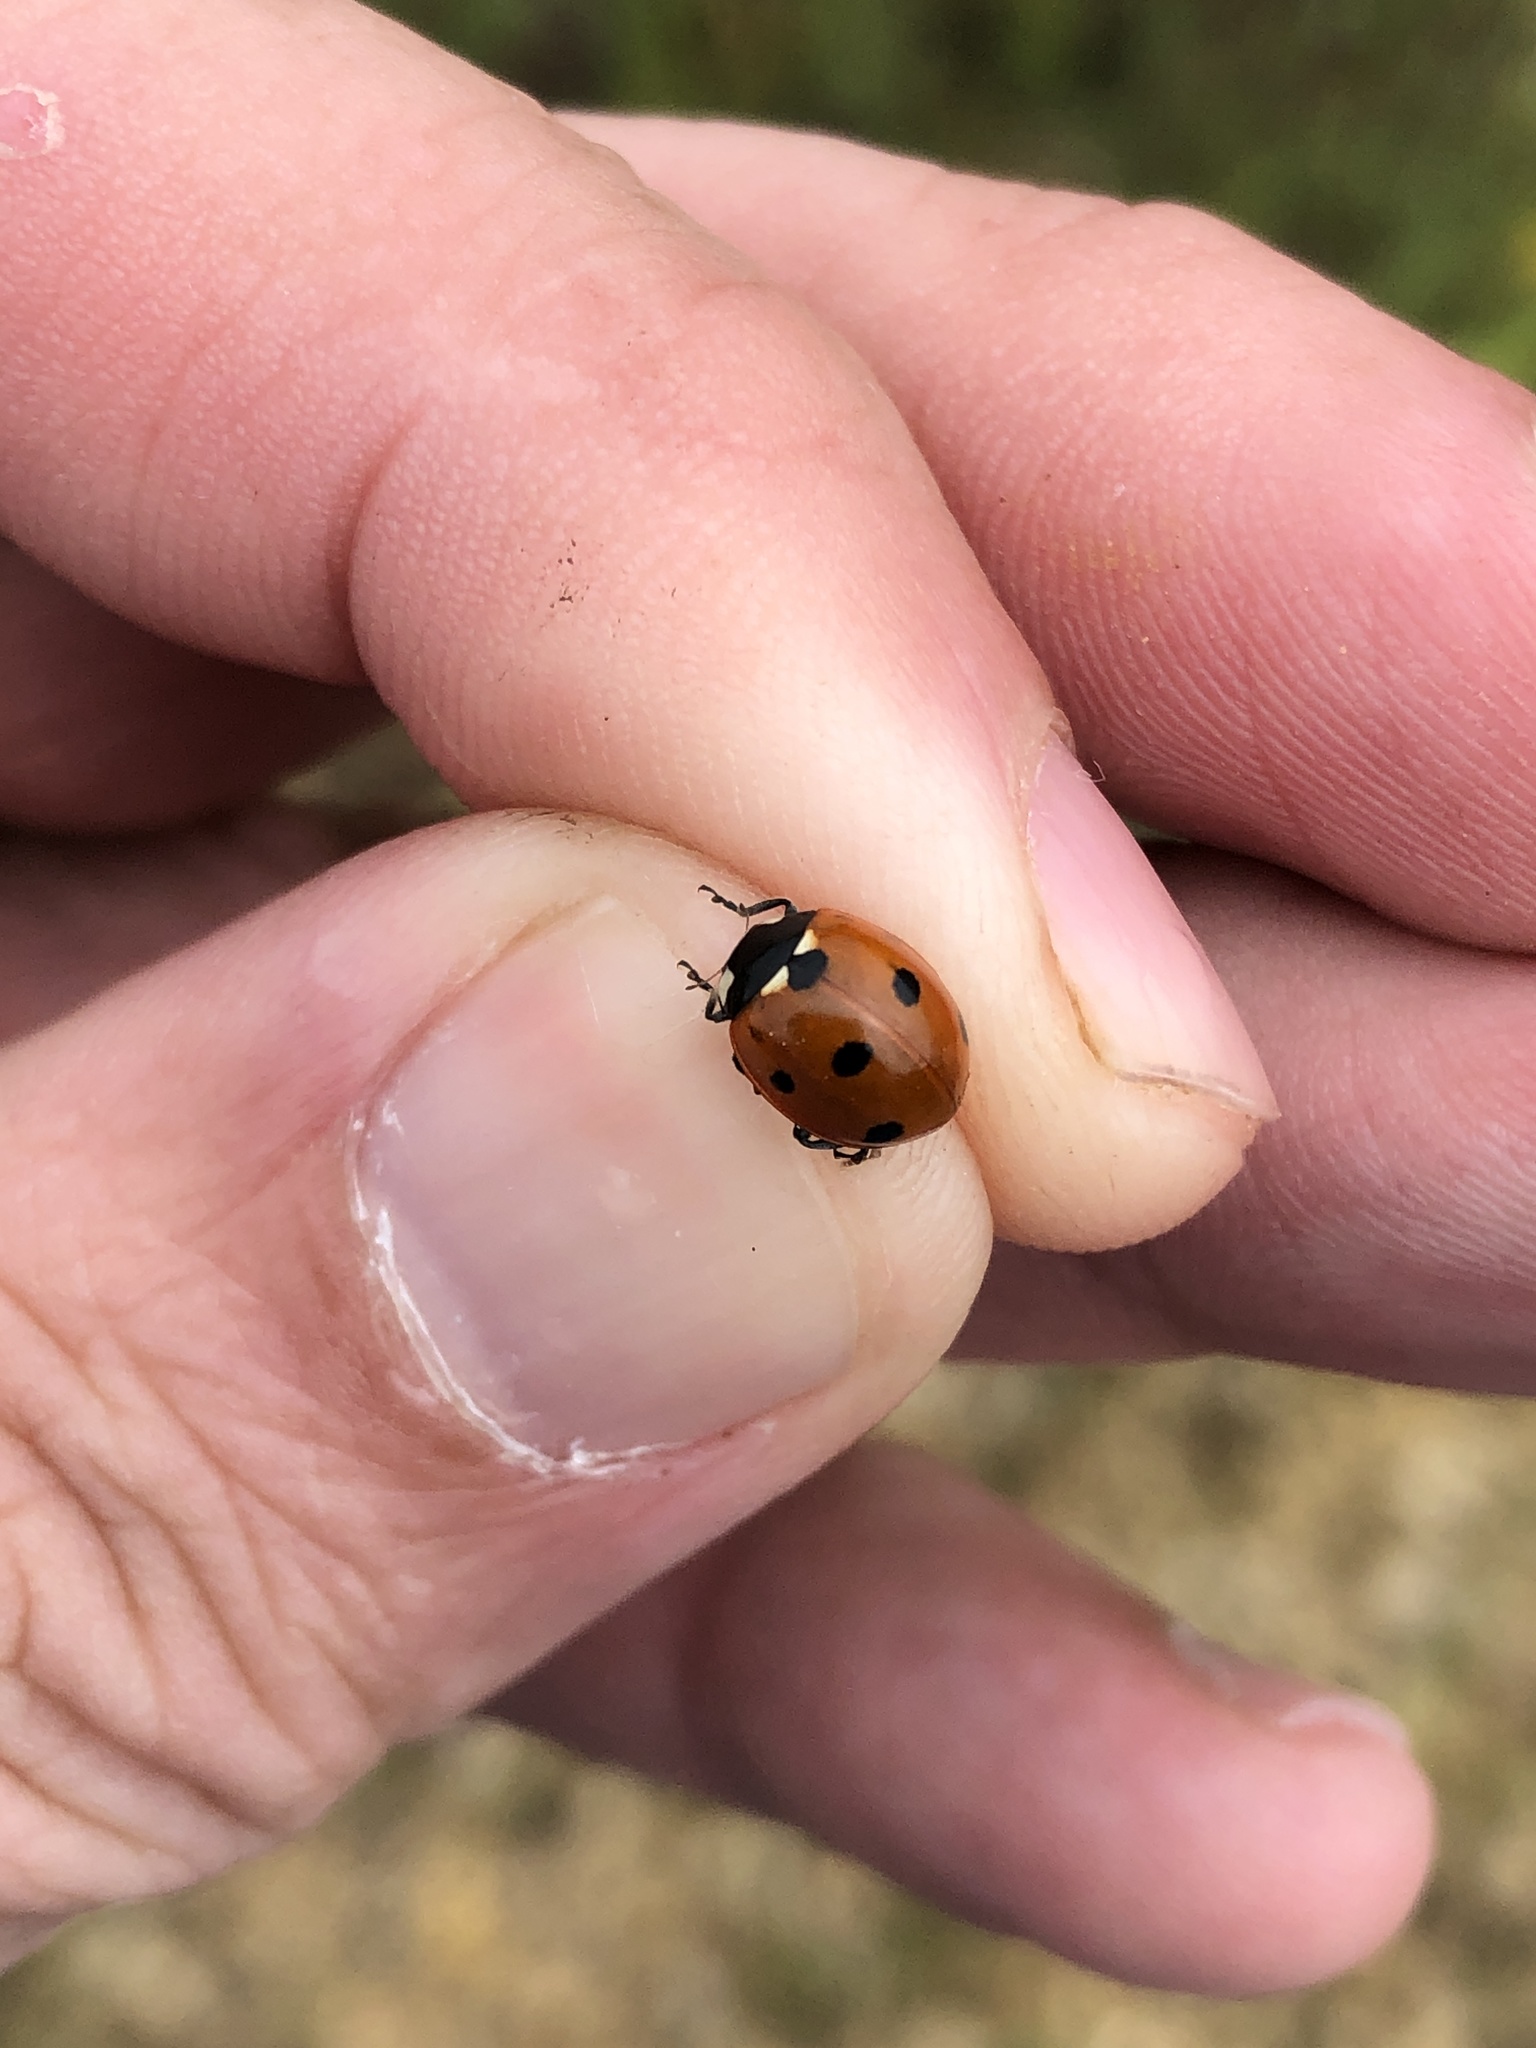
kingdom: Animalia
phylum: Arthropoda
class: Insecta
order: Coleoptera
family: Coccinellidae
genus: Coccinella
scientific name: Coccinella septempunctata
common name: Sevenspotted lady beetle
